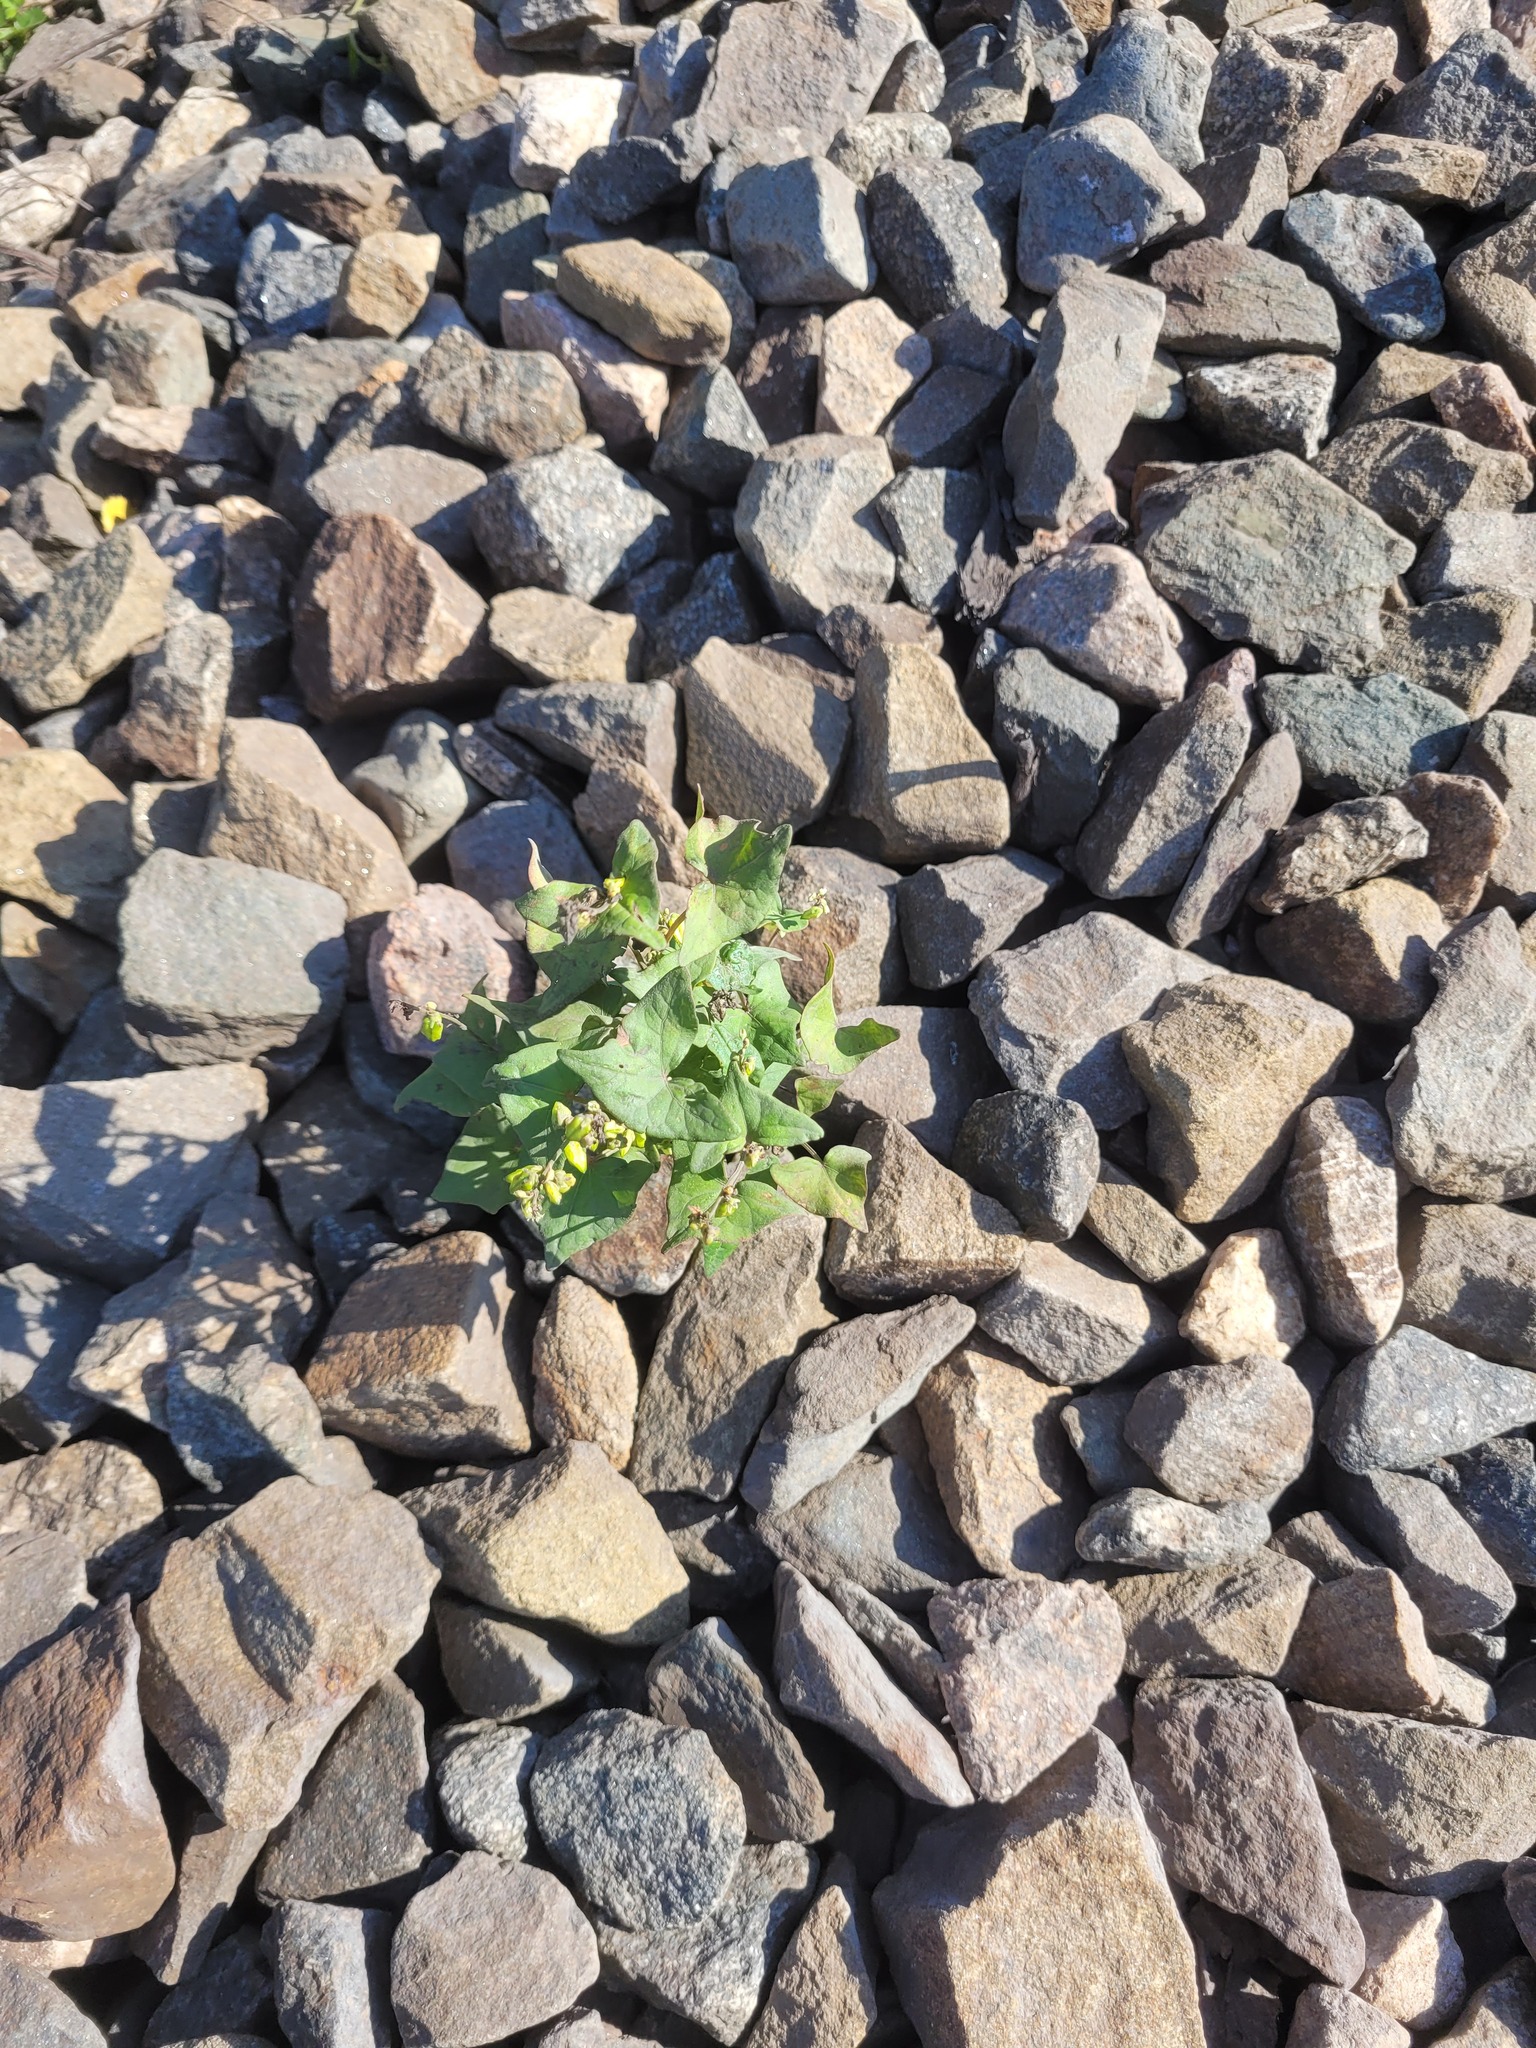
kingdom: Plantae
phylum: Tracheophyta
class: Magnoliopsida
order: Caryophyllales
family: Polygonaceae
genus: Fagopyrum
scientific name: Fagopyrum tataricum
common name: Green buckwheat
